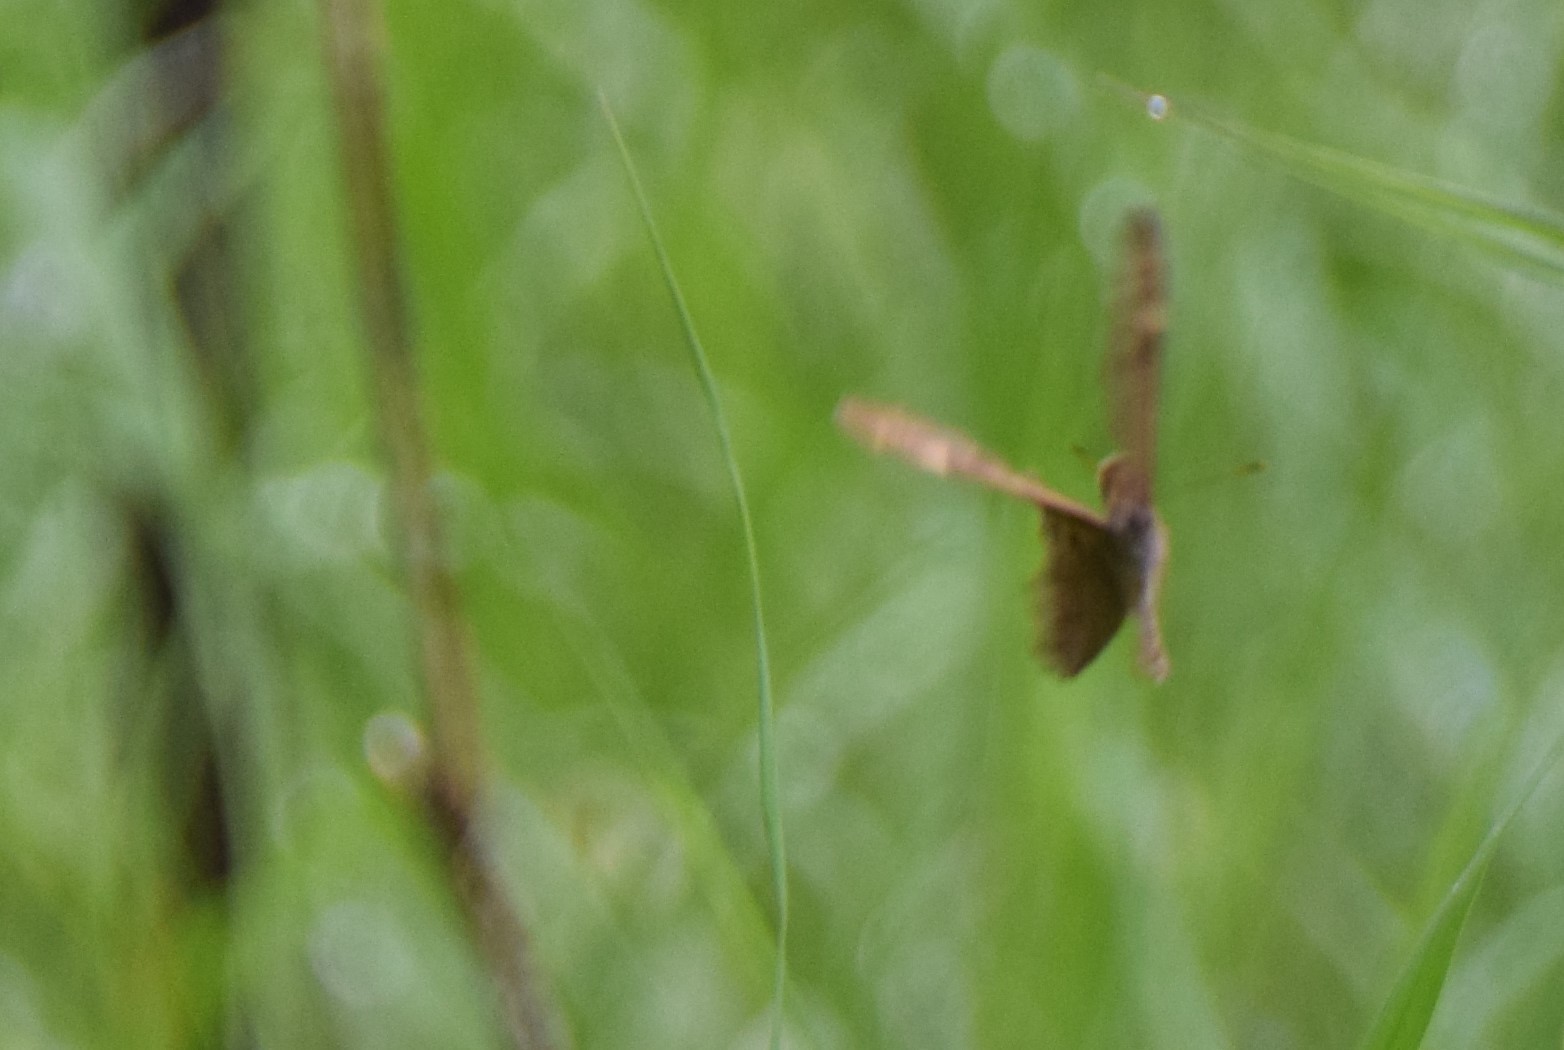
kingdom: Animalia
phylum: Arthropoda
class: Insecta
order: Lepidoptera
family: Nymphalidae
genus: Lethe
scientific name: Lethe anthedon
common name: Northern pearly-eye
